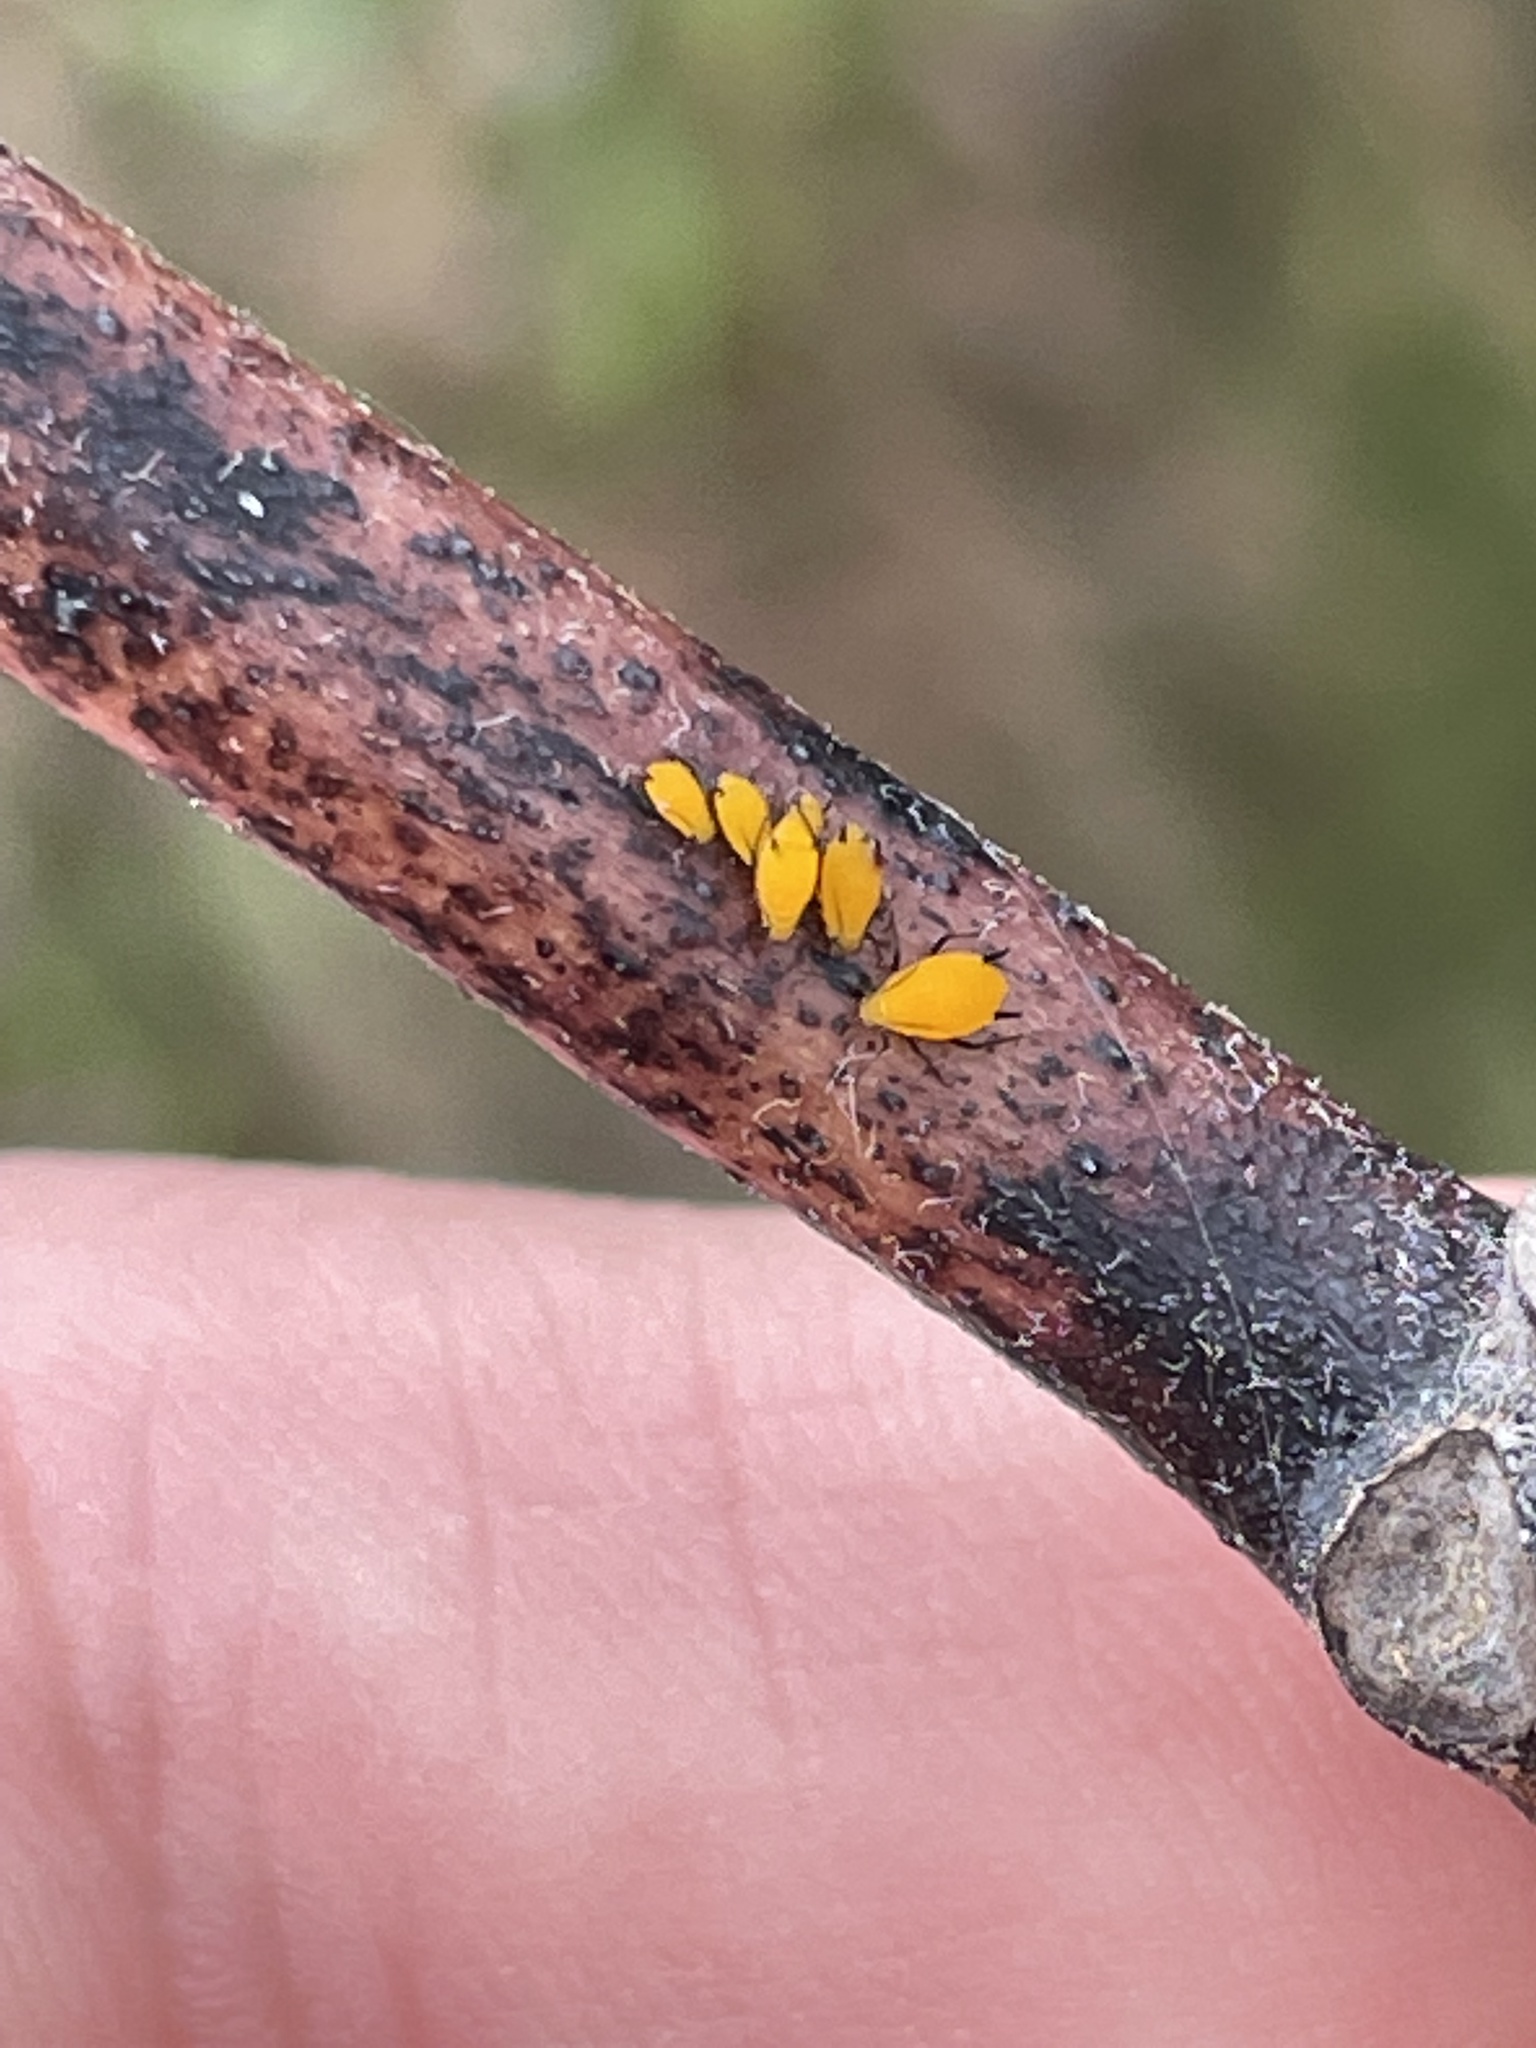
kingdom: Animalia
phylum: Arthropoda
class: Insecta
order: Hemiptera
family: Aphididae
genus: Aphis
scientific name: Aphis nerii
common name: Oleander aphid
